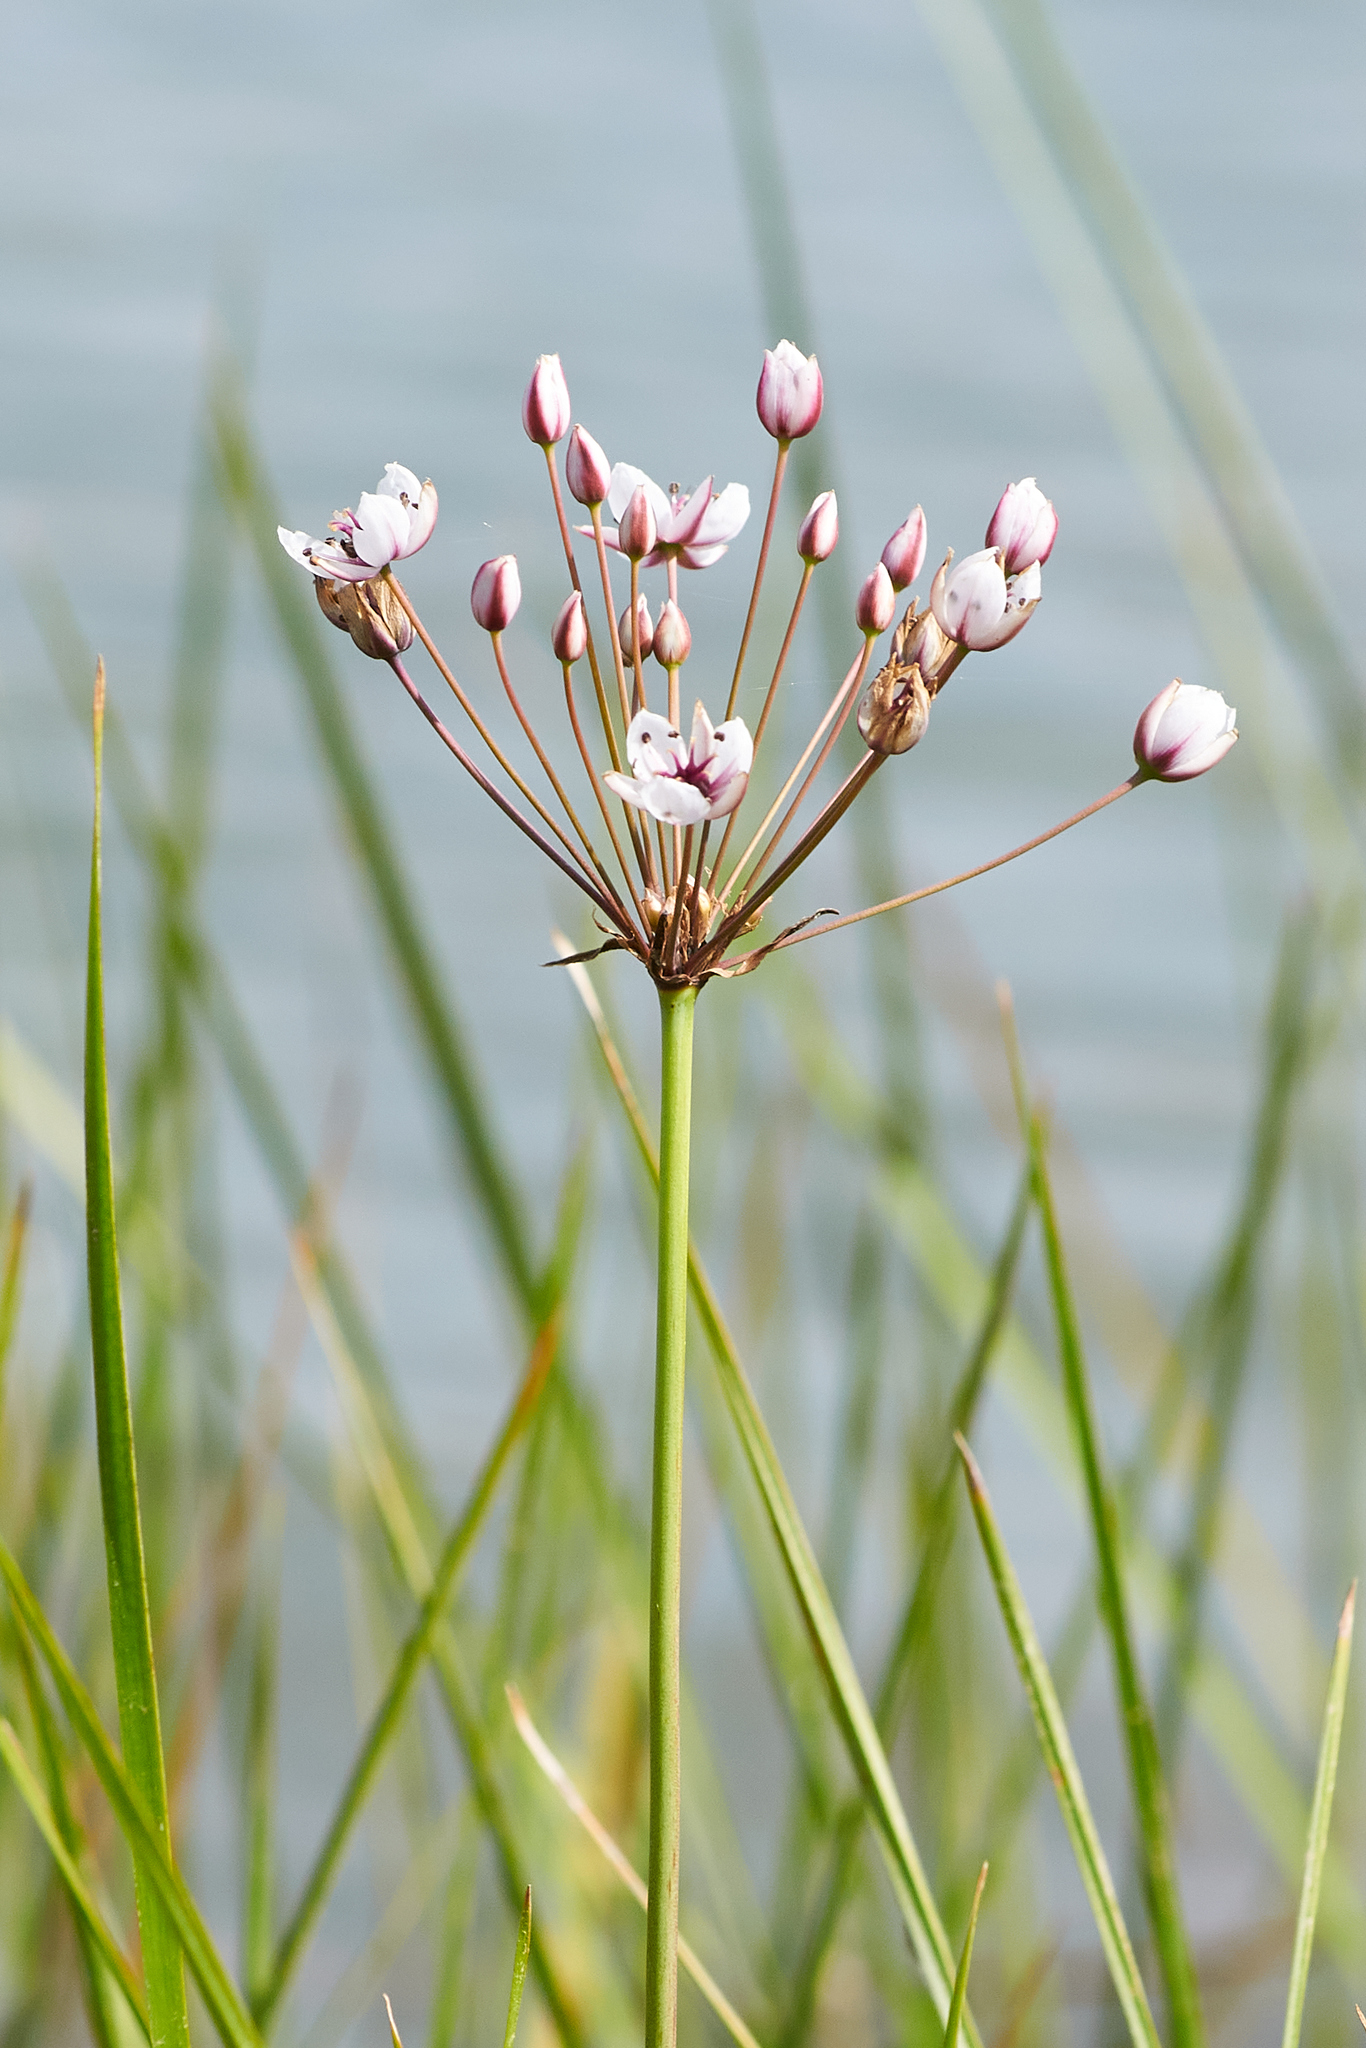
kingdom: Plantae
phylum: Tracheophyta
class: Liliopsida
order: Alismatales
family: Butomaceae
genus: Butomus
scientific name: Butomus umbellatus
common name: Flowering-rush
